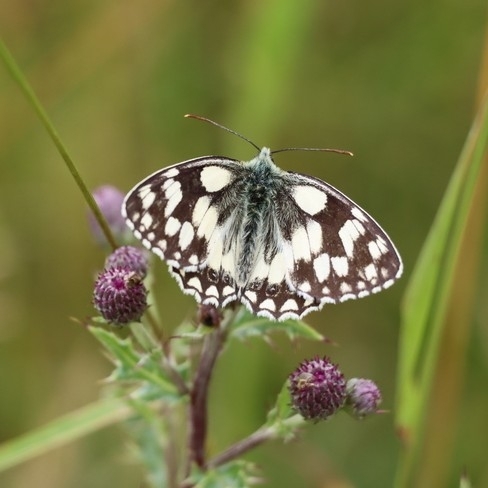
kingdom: Animalia
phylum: Arthropoda
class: Insecta
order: Lepidoptera
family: Nymphalidae
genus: Melanargia
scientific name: Melanargia galathea
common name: Marbled white
